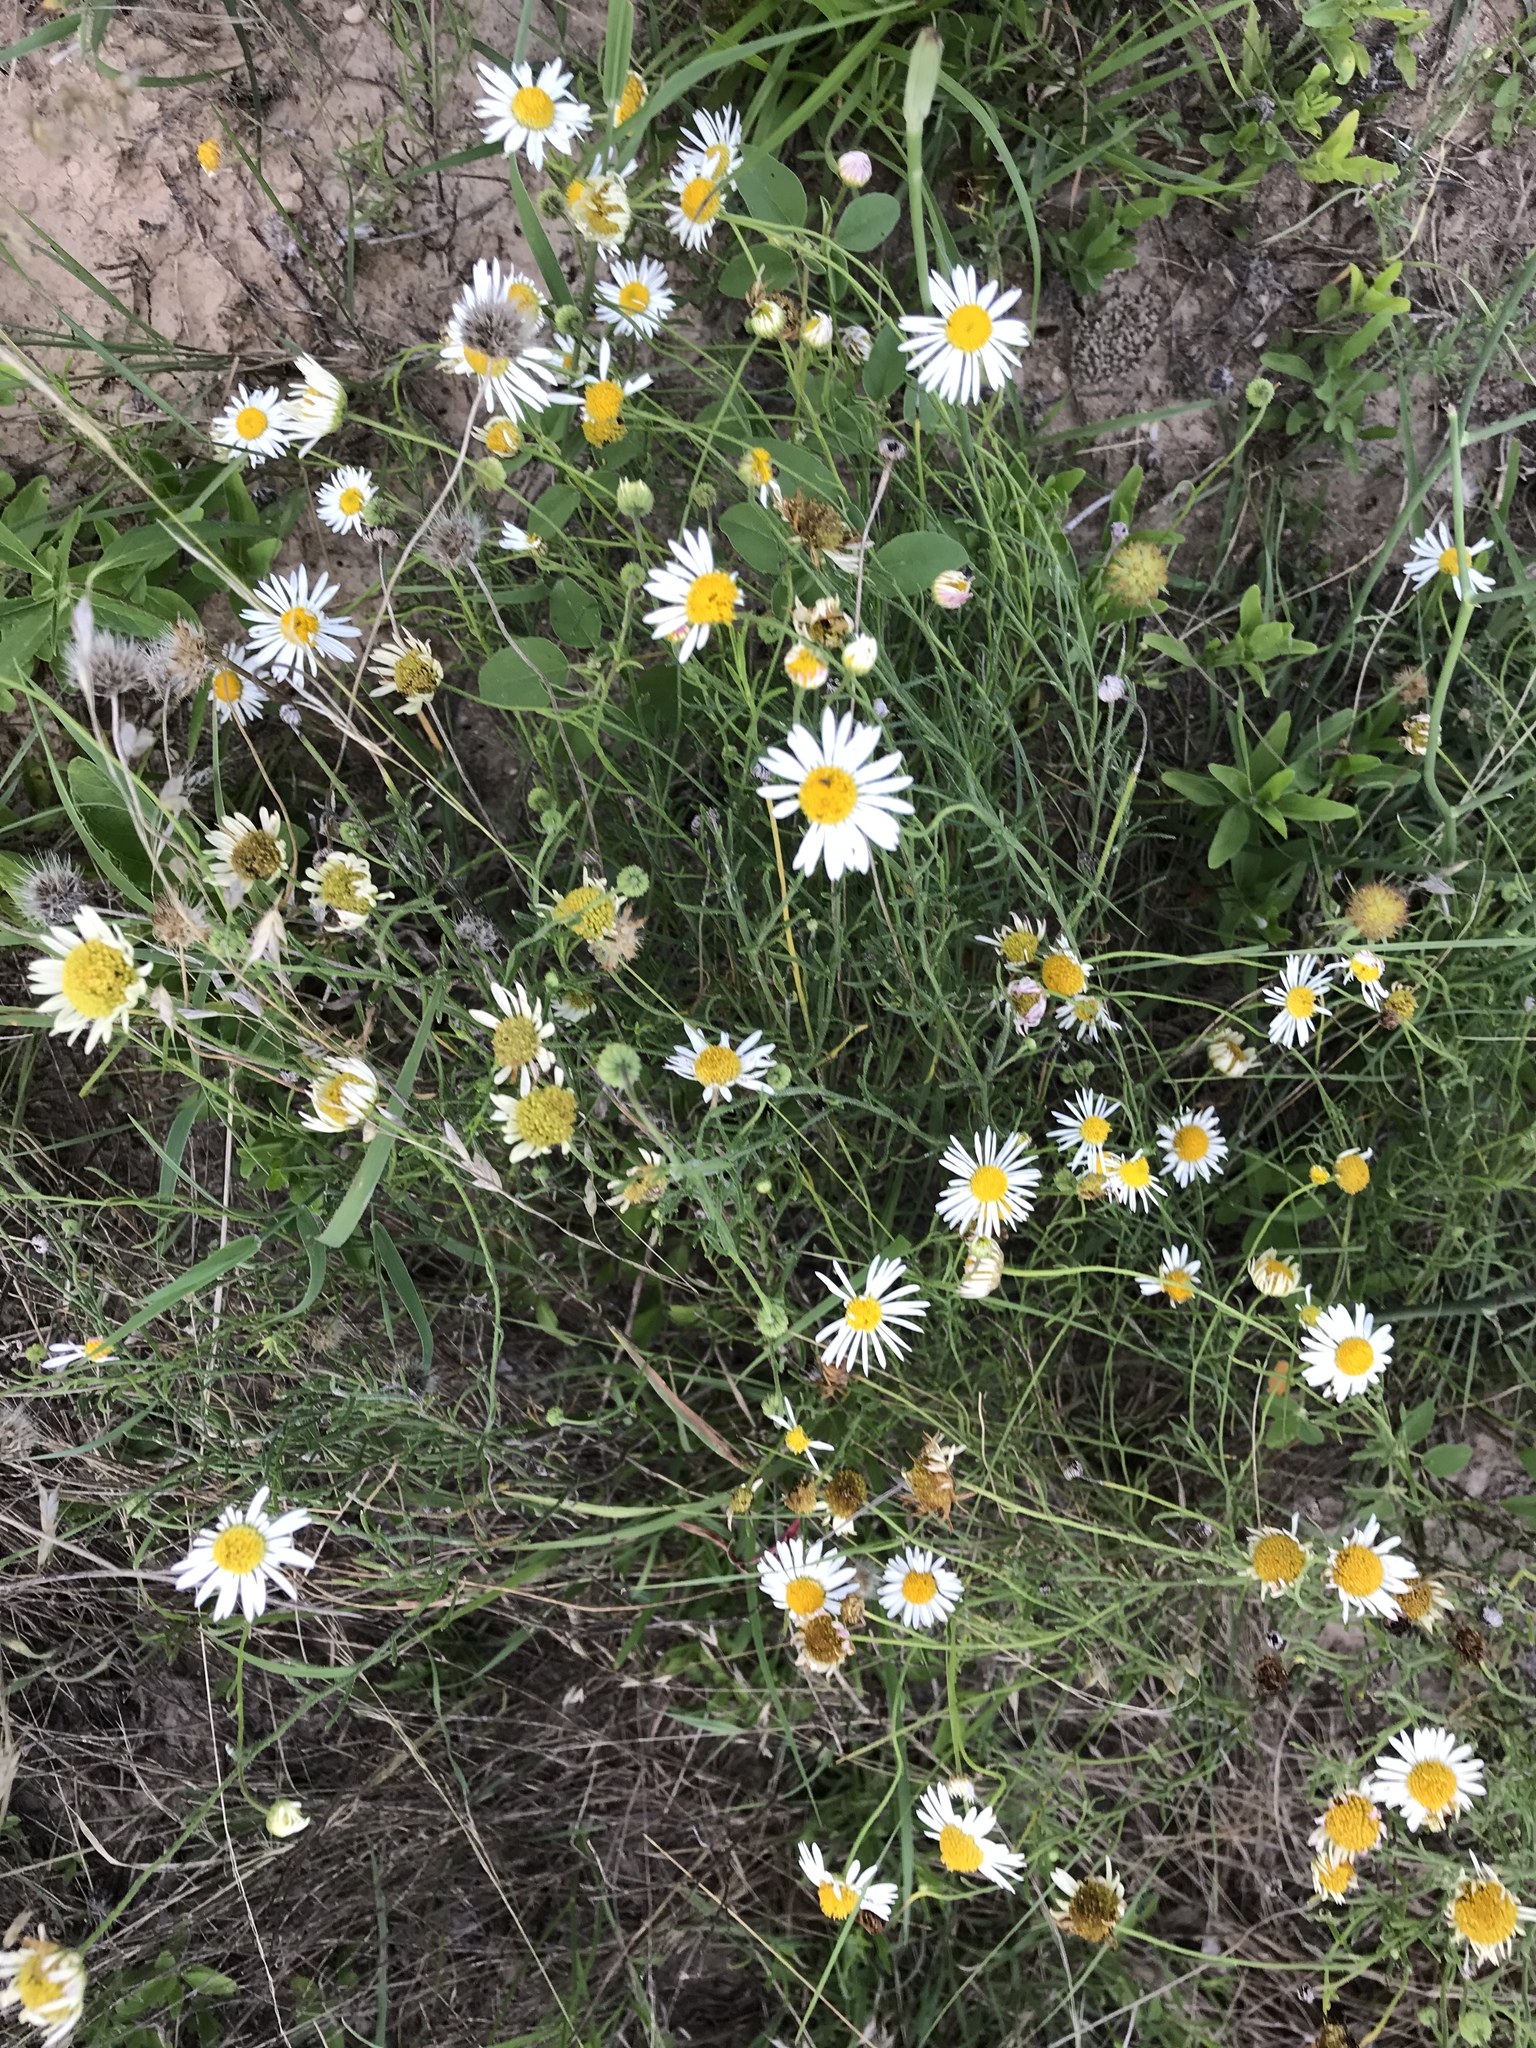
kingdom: Plantae
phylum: Tracheophyta
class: Magnoliopsida
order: Asterales
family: Asteraceae
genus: Erigeron
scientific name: Erigeron modestus
